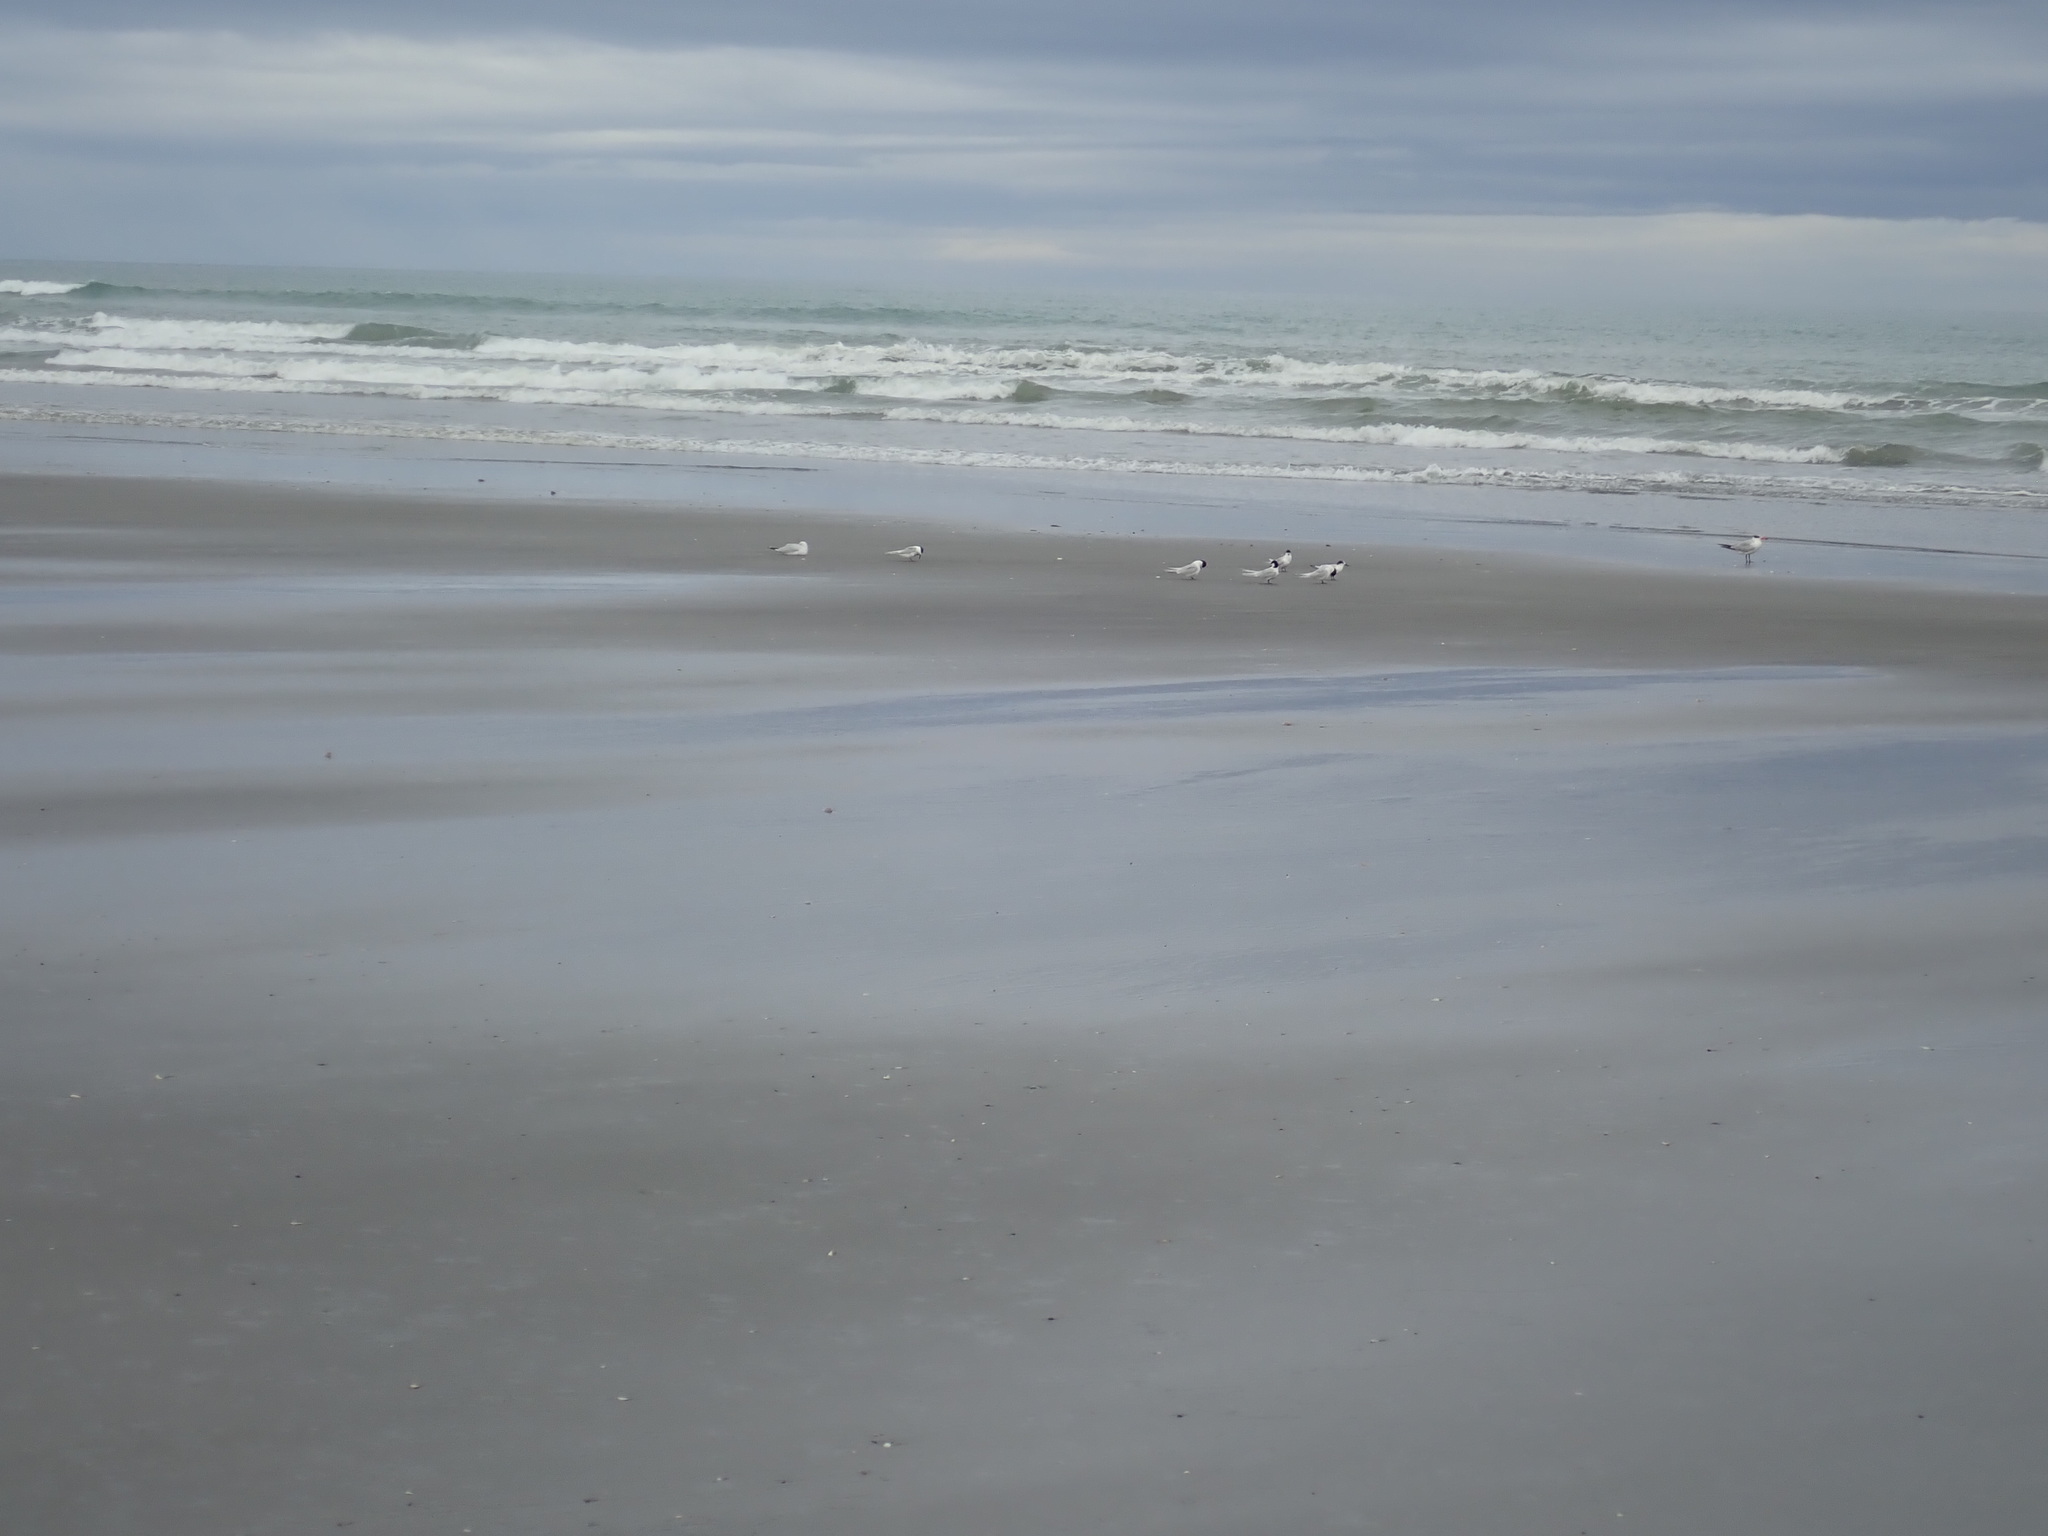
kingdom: Animalia
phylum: Chordata
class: Aves
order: Charadriiformes
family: Laridae
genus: Hydroprogne
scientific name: Hydroprogne caspia
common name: Caspian tern
